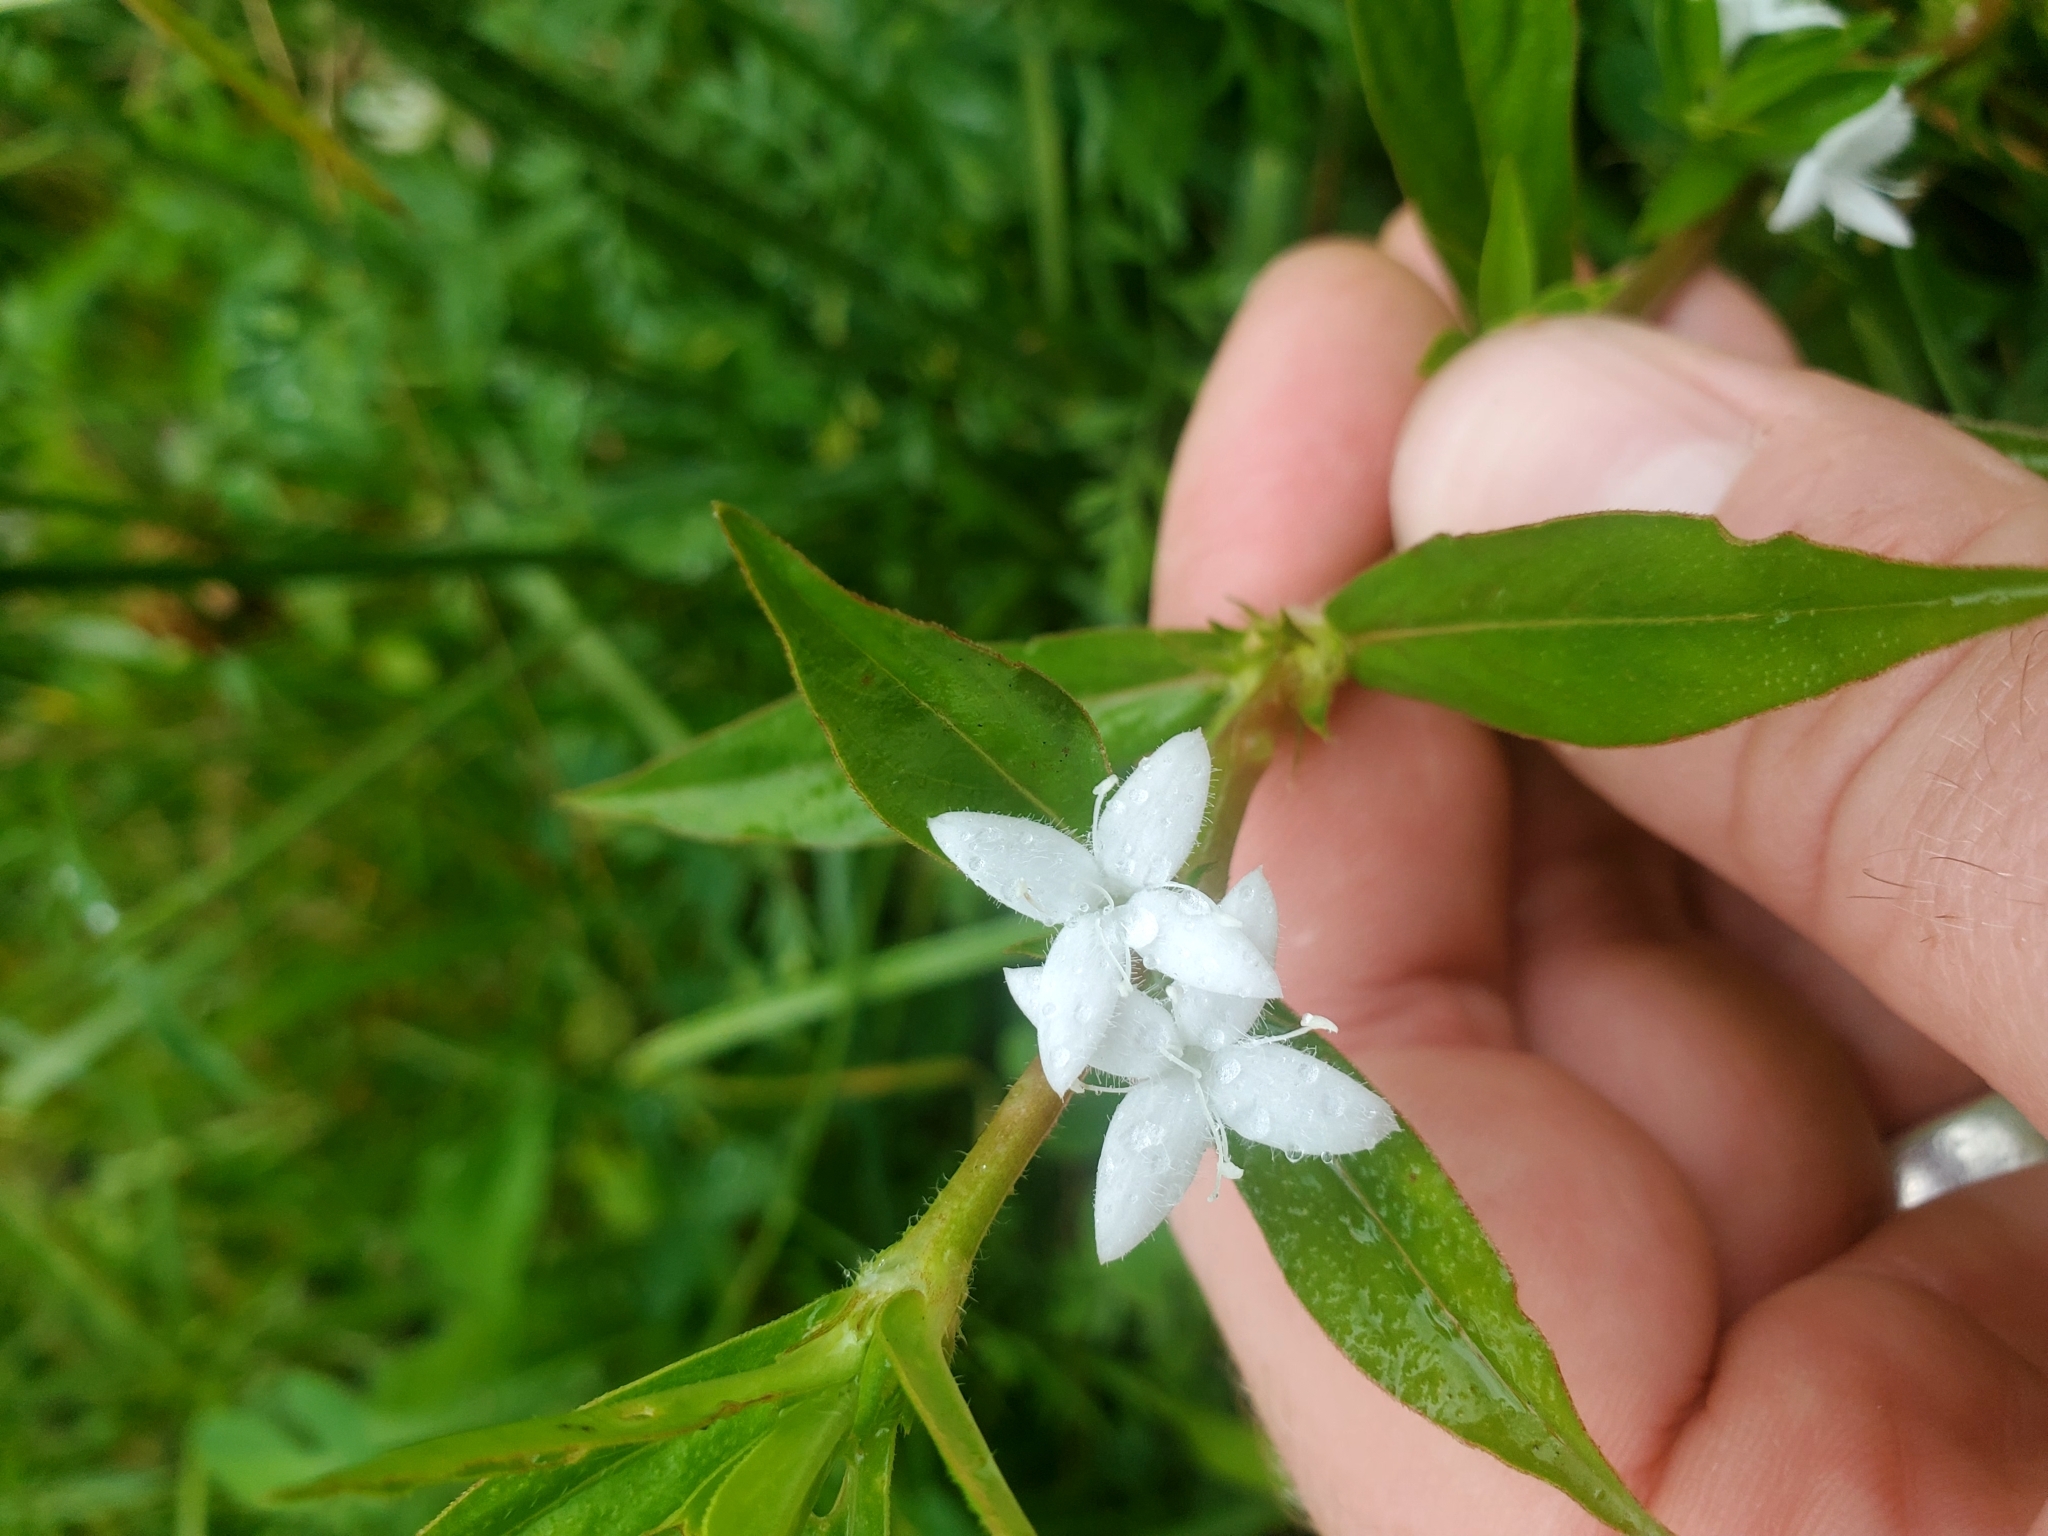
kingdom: Plantae
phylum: Tracheophyta
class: Magnoliopsida
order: Gentianales
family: Rubiaceae
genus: Diodia
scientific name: Diodia virginiana
